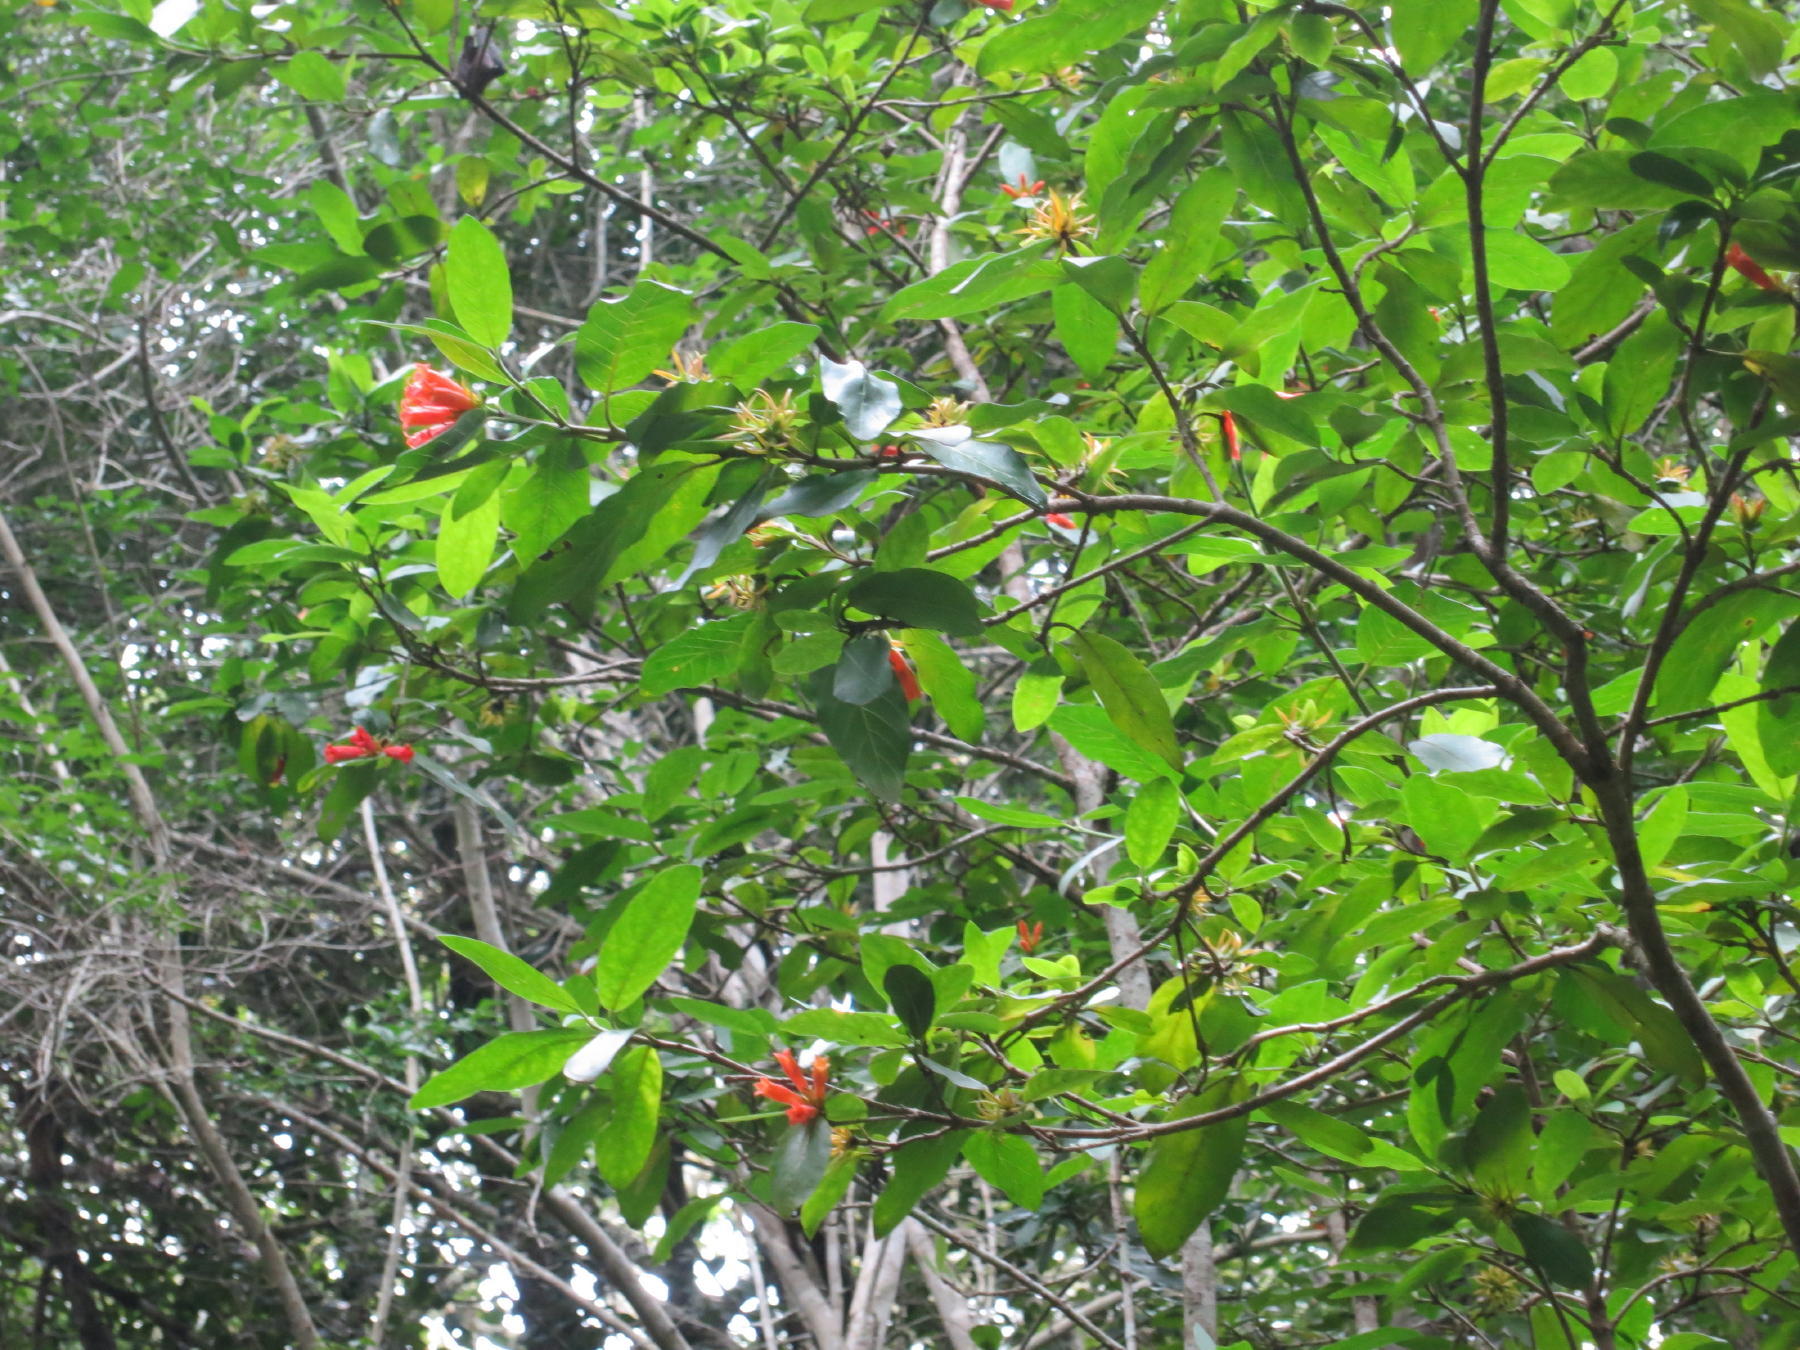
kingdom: Plantae
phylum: Tracheophyta
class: Magnoliopsida
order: Gentianales
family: Rubiaceae
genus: Burchellia
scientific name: Burchellia bubalina
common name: Wild pomegranate
